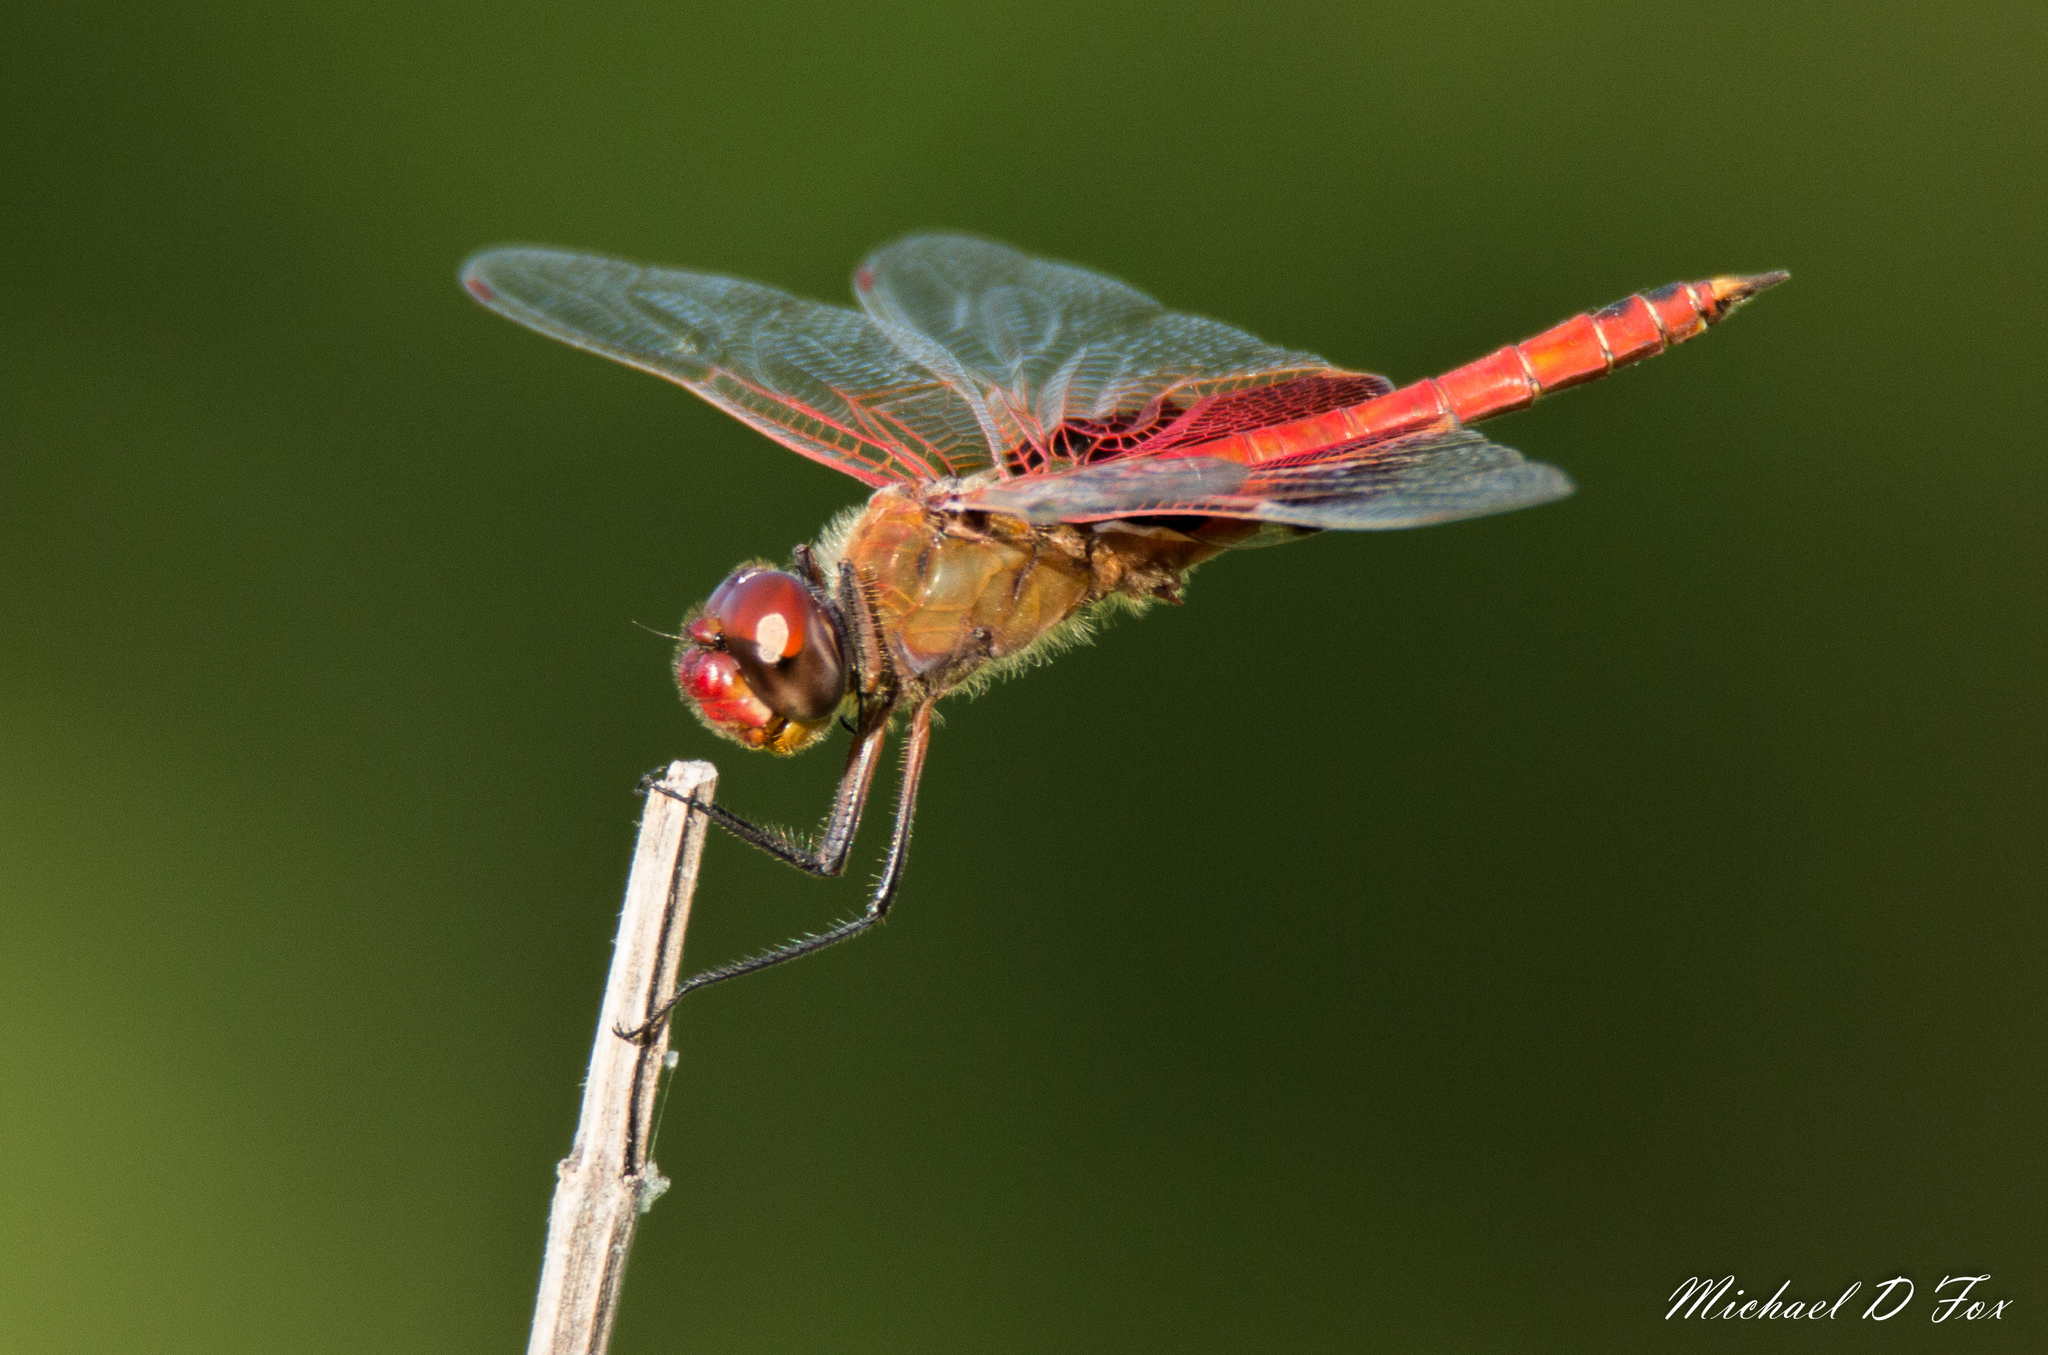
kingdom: Animalia
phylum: Arthropoda
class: Insecta
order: Odonata
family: Libellulidae
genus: Tramea
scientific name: Tramea onusta
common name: Red saddlebags
